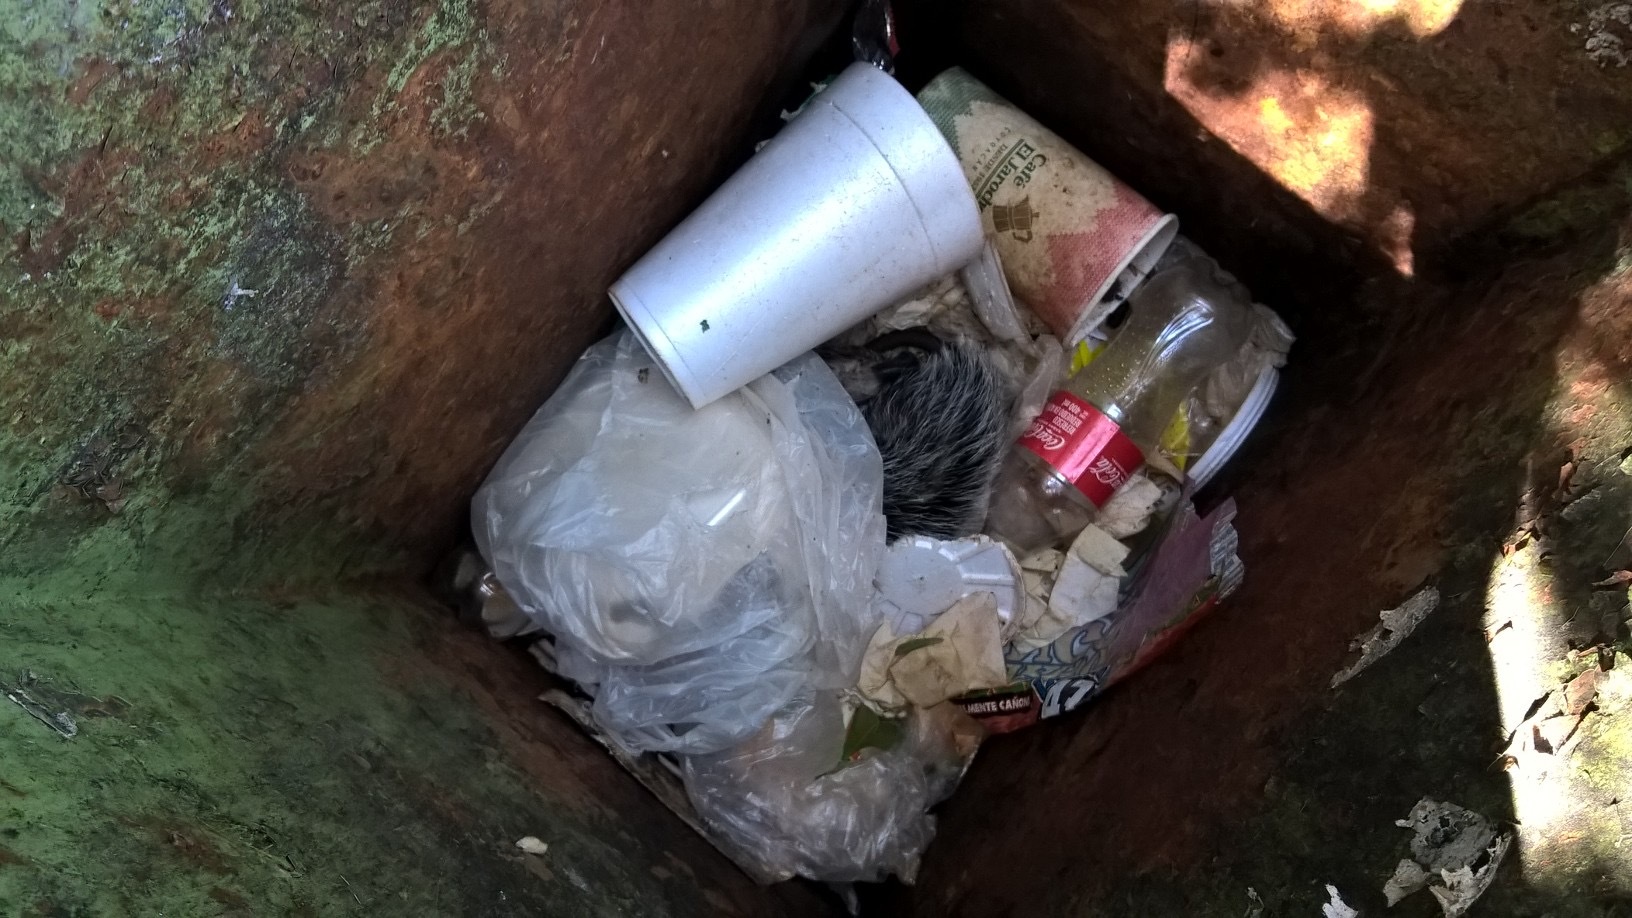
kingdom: Animalia
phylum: Chordata
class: Mammalia
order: Didelphimorphia
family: Didelphidae
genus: Didelphis
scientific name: Didelphis virginiana
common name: Virginia opossum
